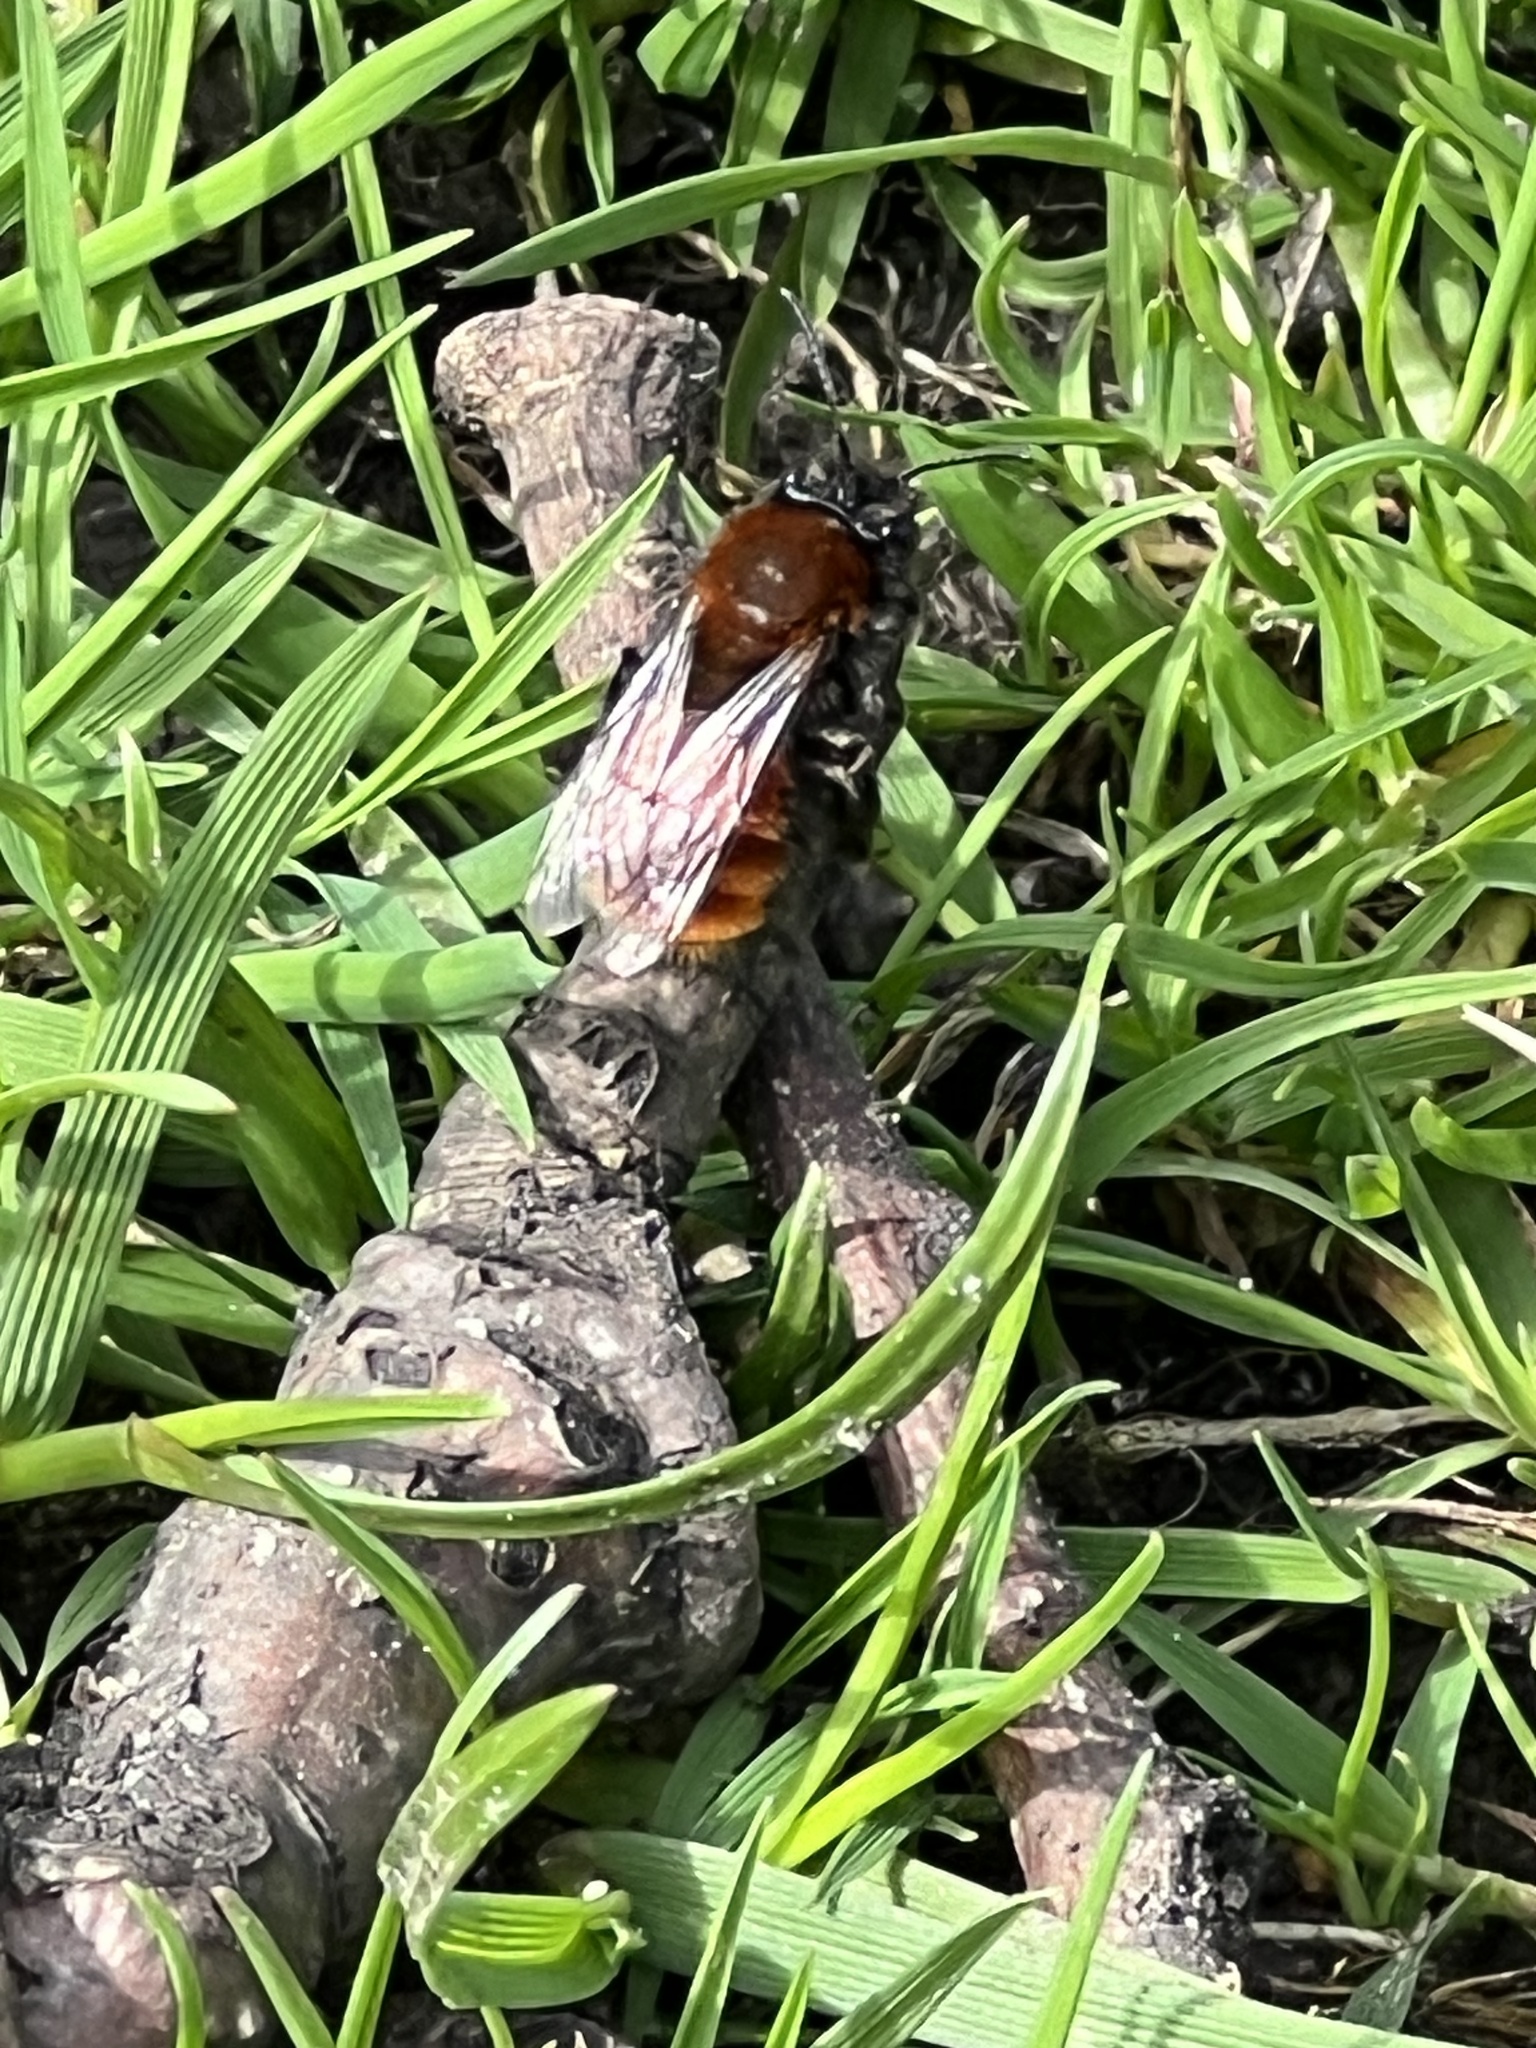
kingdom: Animalia
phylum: Arthropoda
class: Insecta
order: Hymenoptera
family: Andrenidae
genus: Andrena
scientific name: Andrena fulva
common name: Tawny mining bee
